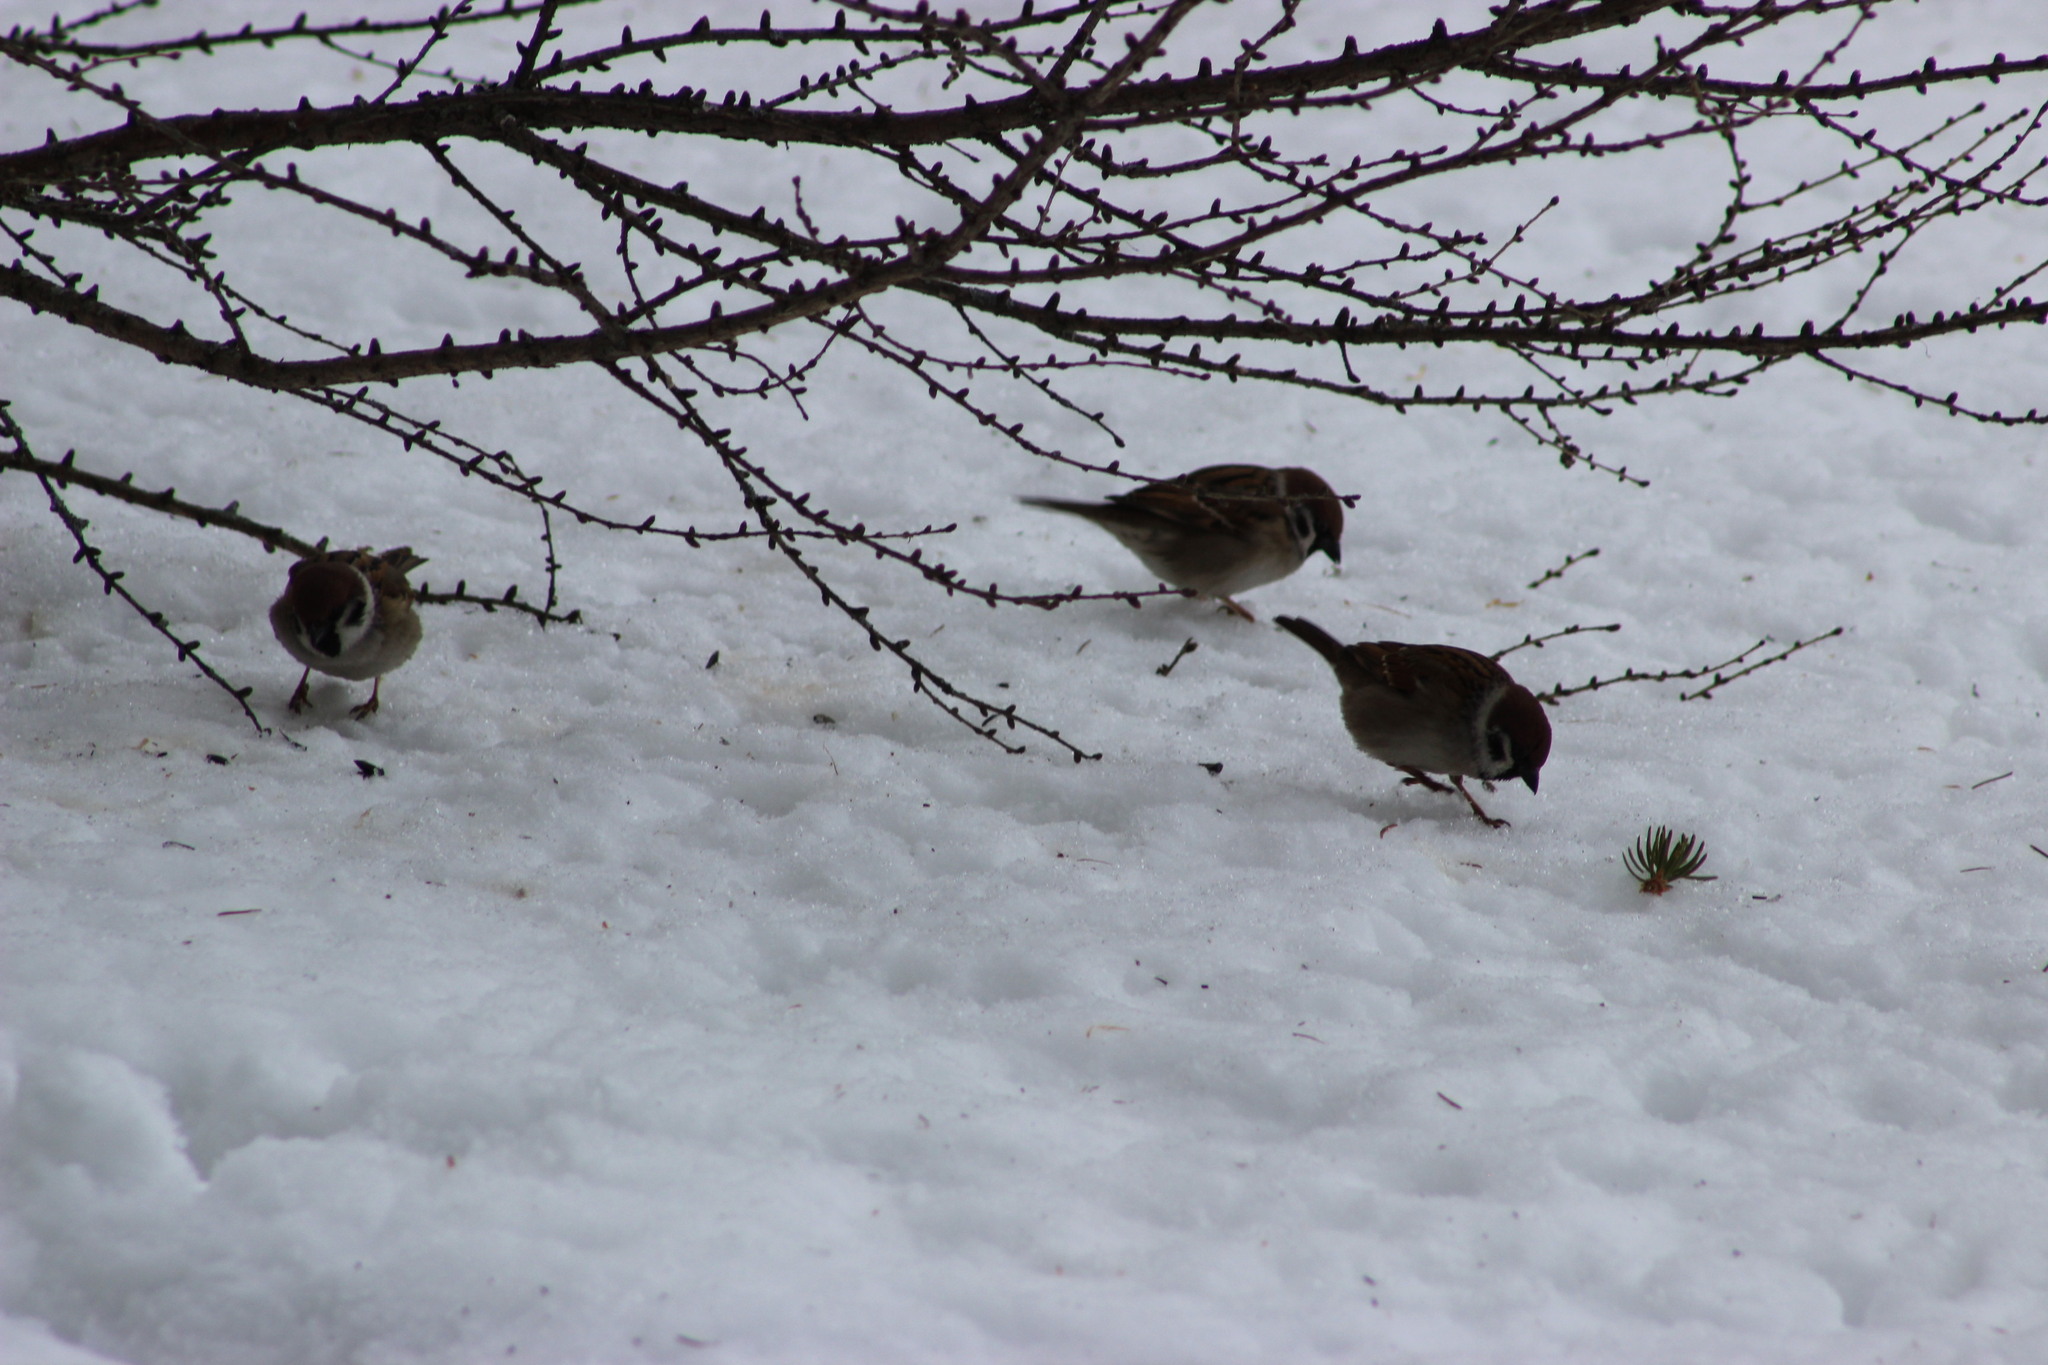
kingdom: Animalia
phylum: Chordata
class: Aves
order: Passeriformes
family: Passeridae
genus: Passer
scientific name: Passer montanus
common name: Eurasian tree sparrow
